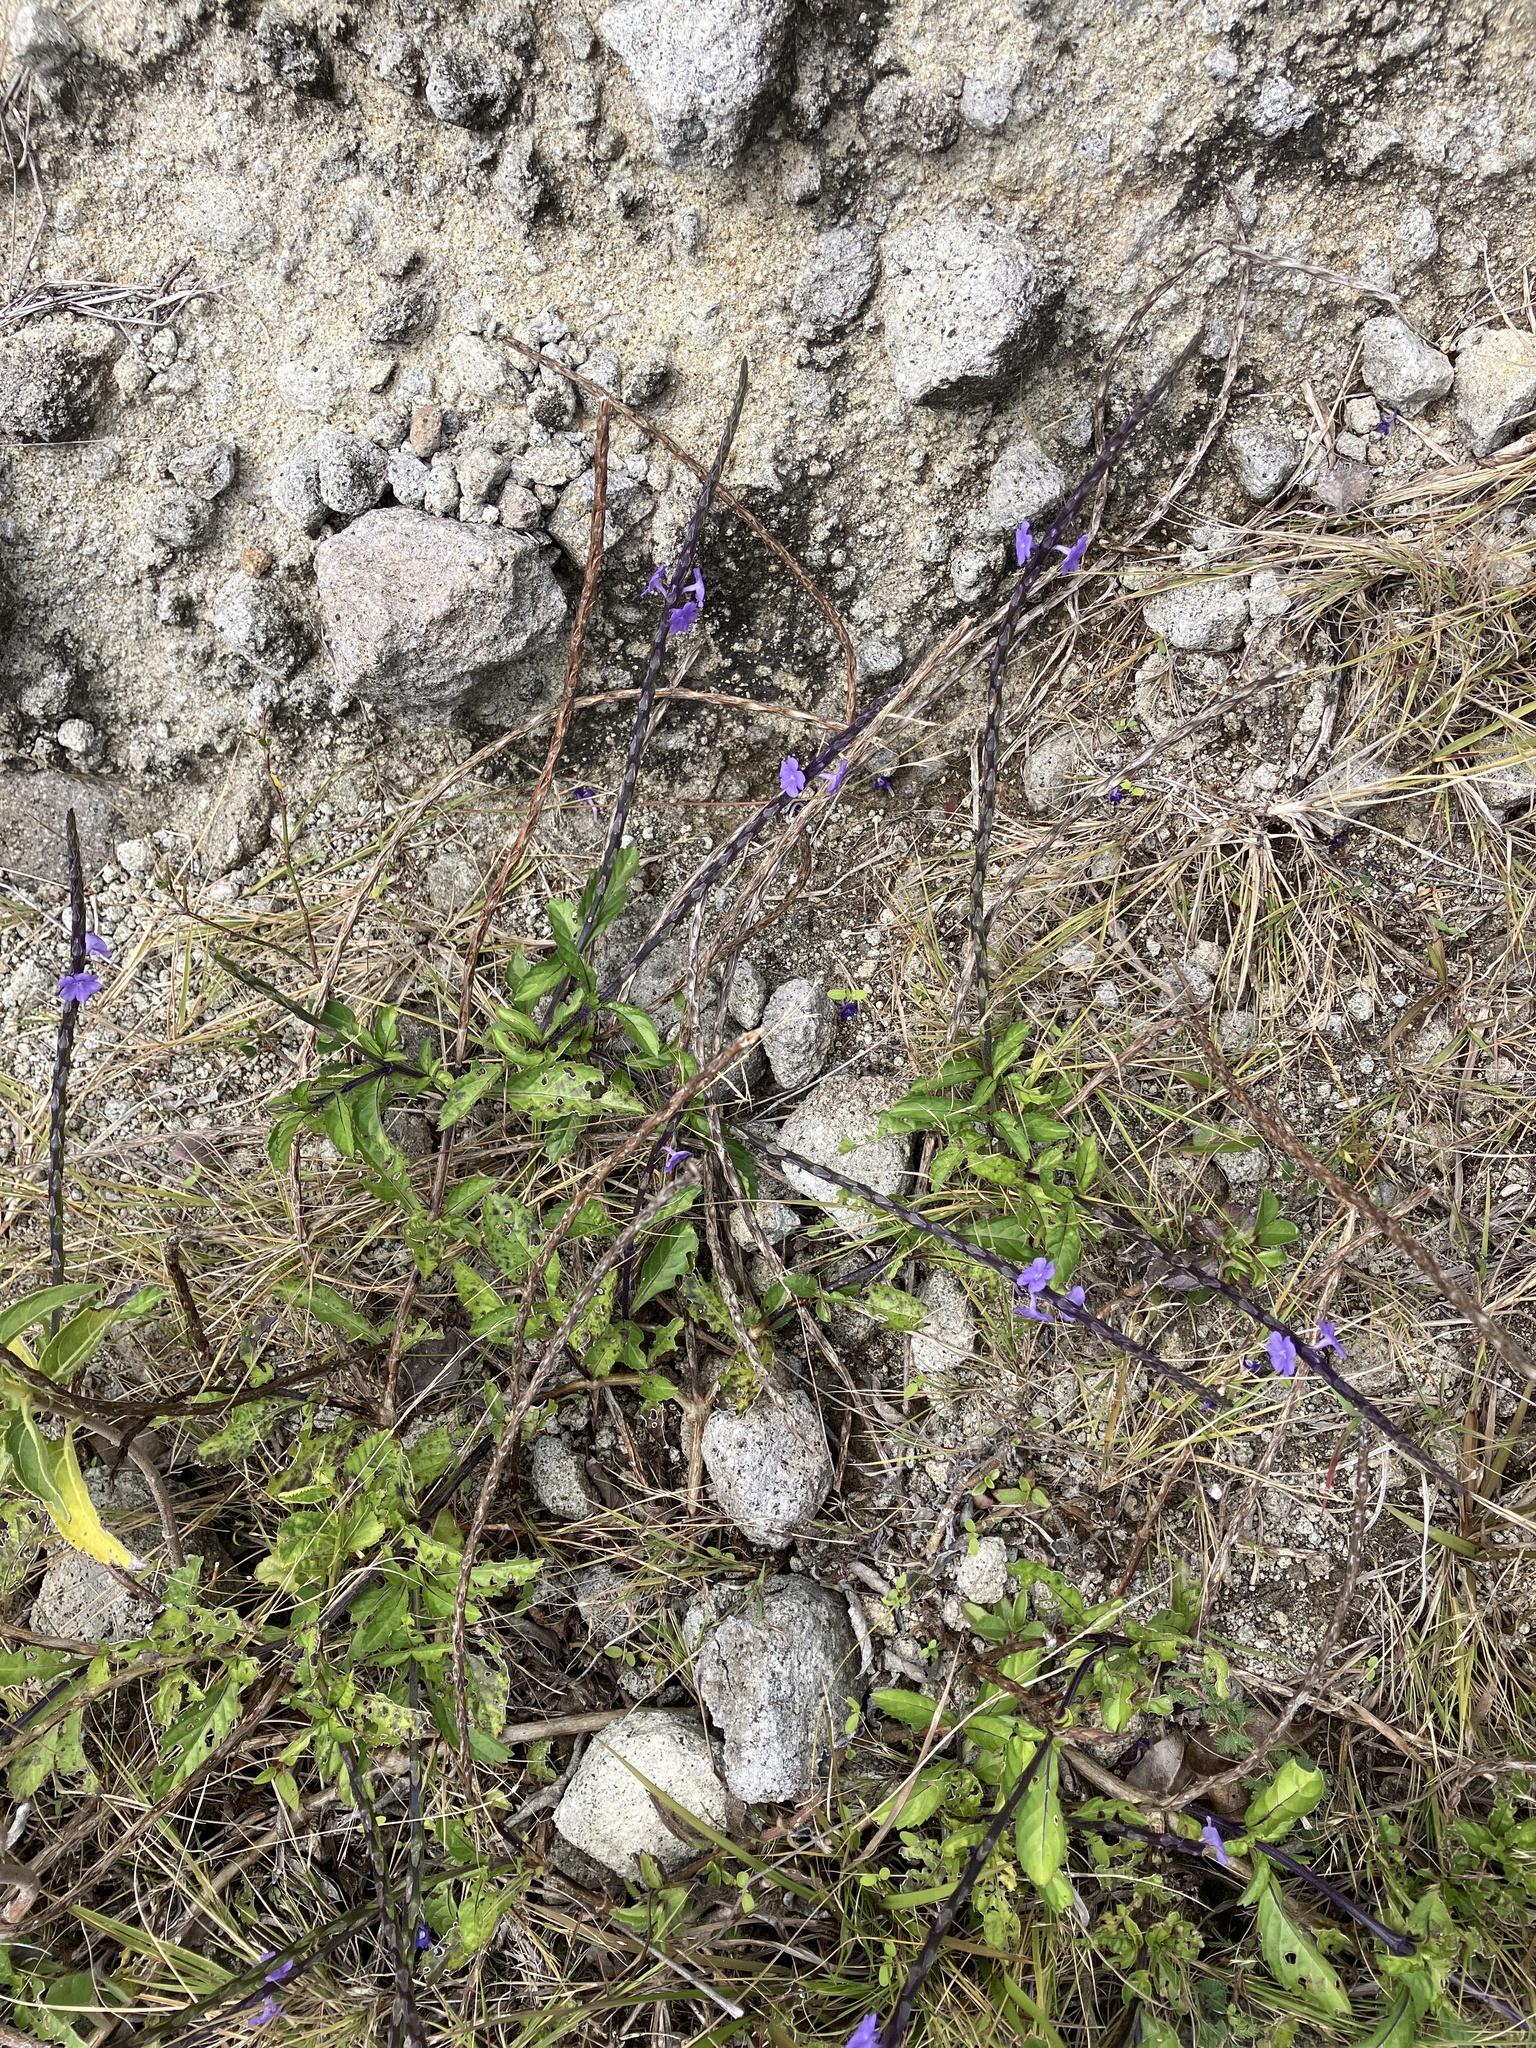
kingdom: Plantae
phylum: Tracheophyta
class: Magnoliopsida
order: Lamiales
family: Verbenaceae
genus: Stachytarpheta
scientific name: Stachytarpheta jamaicensis
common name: Light-blue snakeweed
